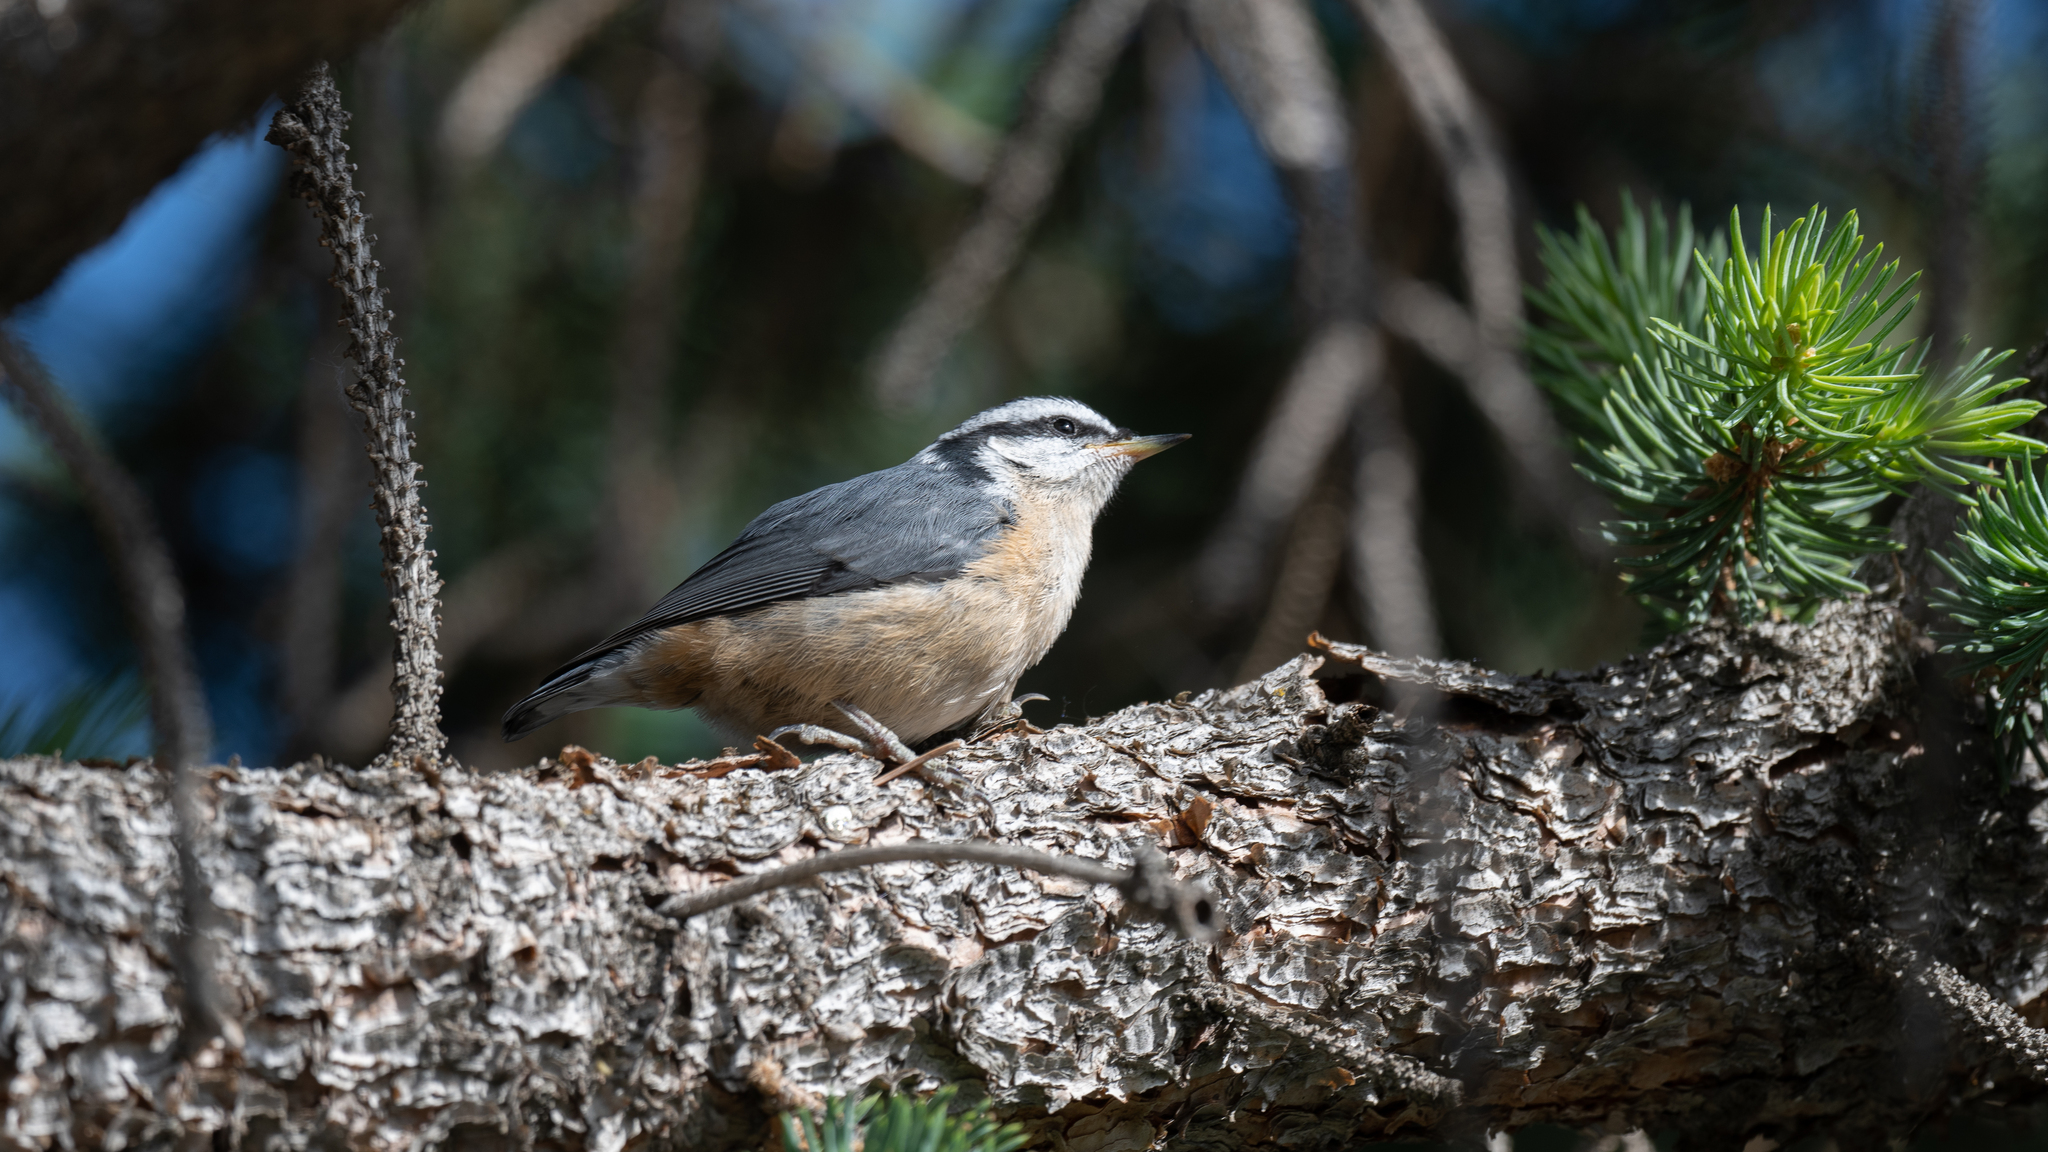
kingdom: Animalia
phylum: Chordata
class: Aves
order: Passeriformes
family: Sittidae
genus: Sitta
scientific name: Sitta canadensis
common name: Red-breasted nuthatch
